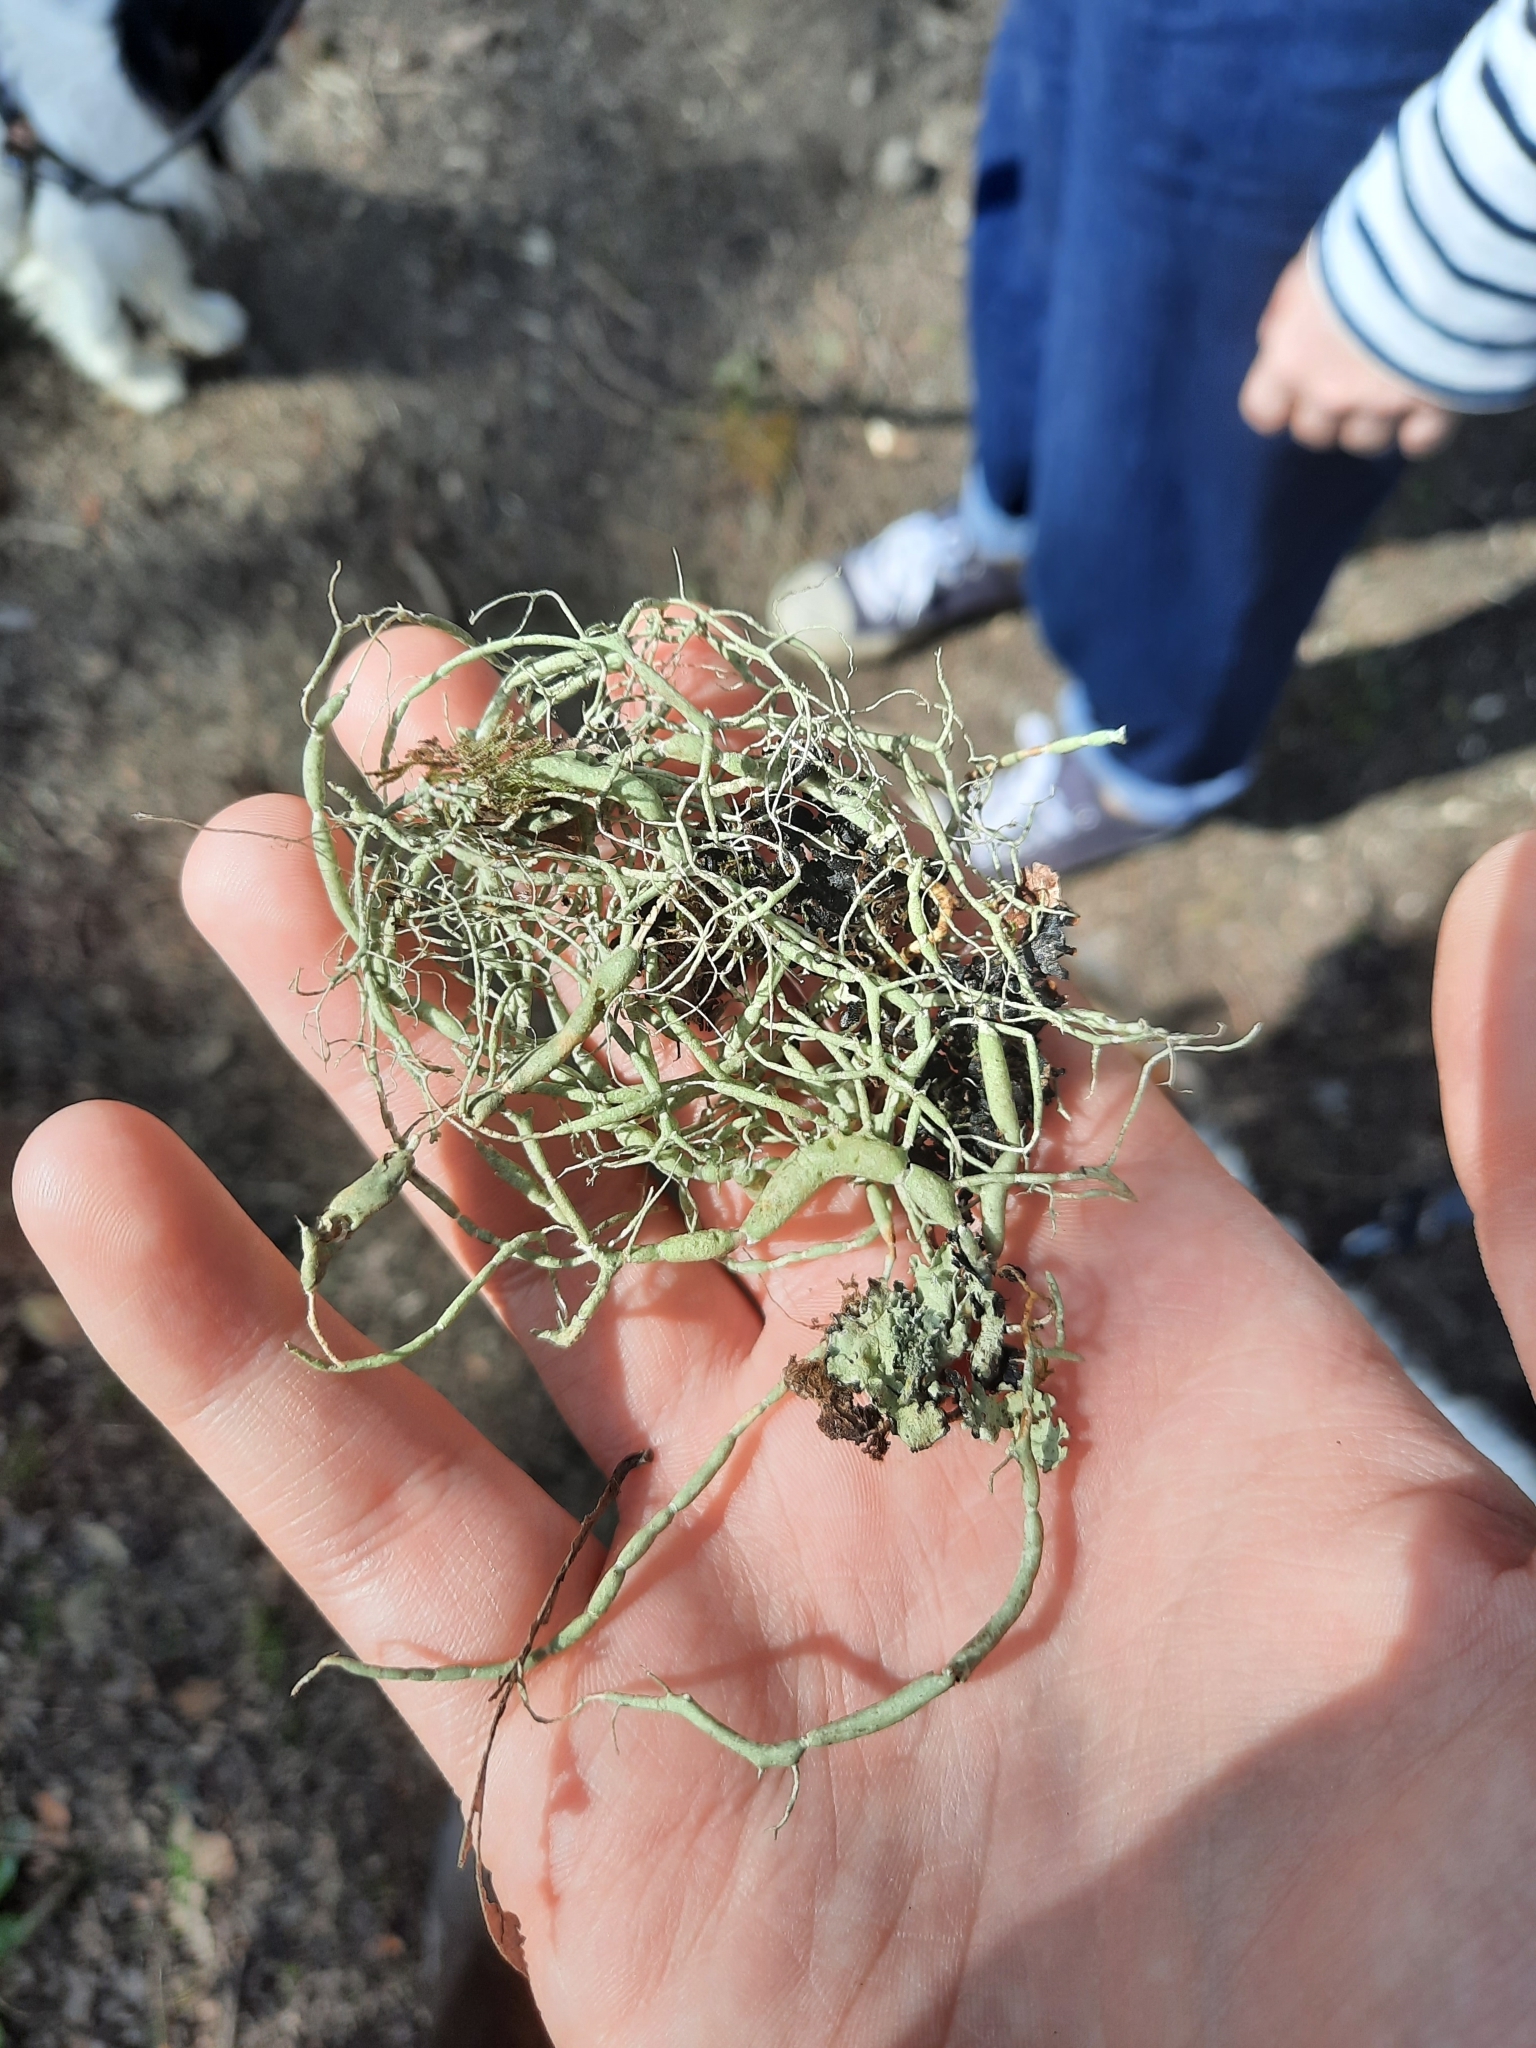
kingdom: Fungi
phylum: Ascomycota
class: Lecanoromycetes
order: Lecanorales
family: Parmeliaceae
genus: Usnea
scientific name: Usnea articulata
